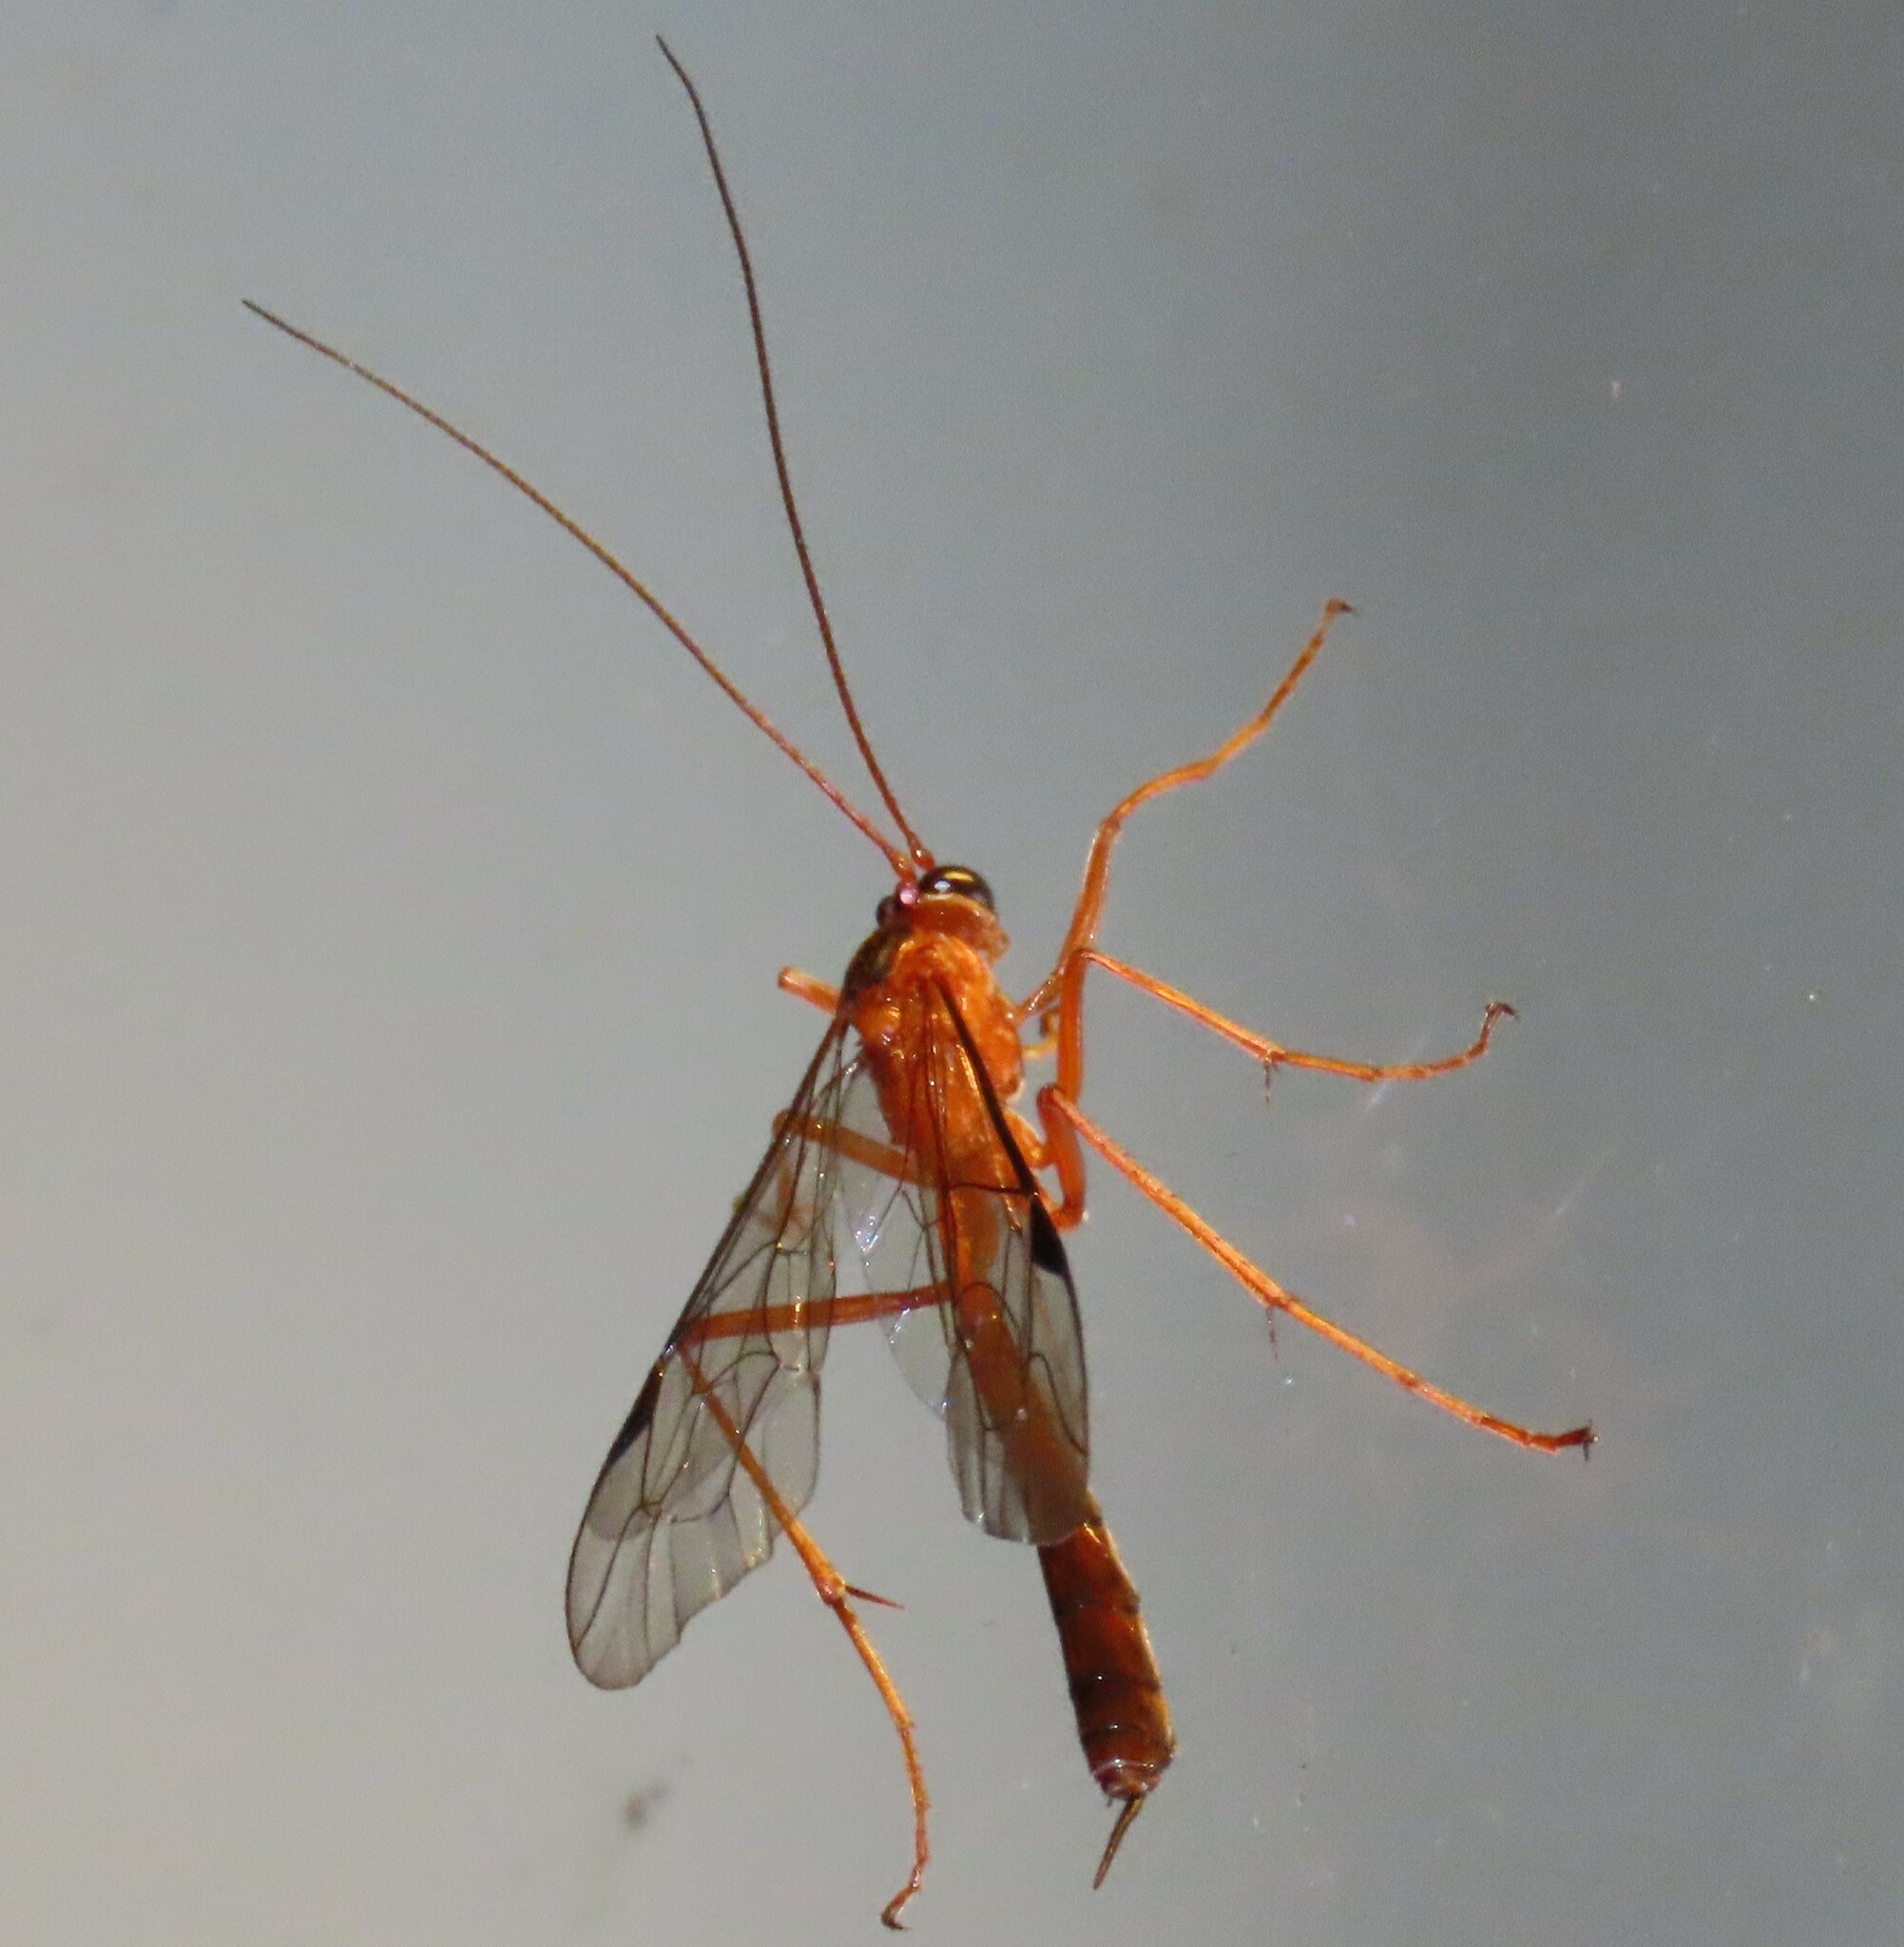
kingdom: Animalia
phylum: Arthropoda
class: Insecta
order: Hymenoptera
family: Ichneumonidae
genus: Netelia
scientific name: Netelia ephippiata
